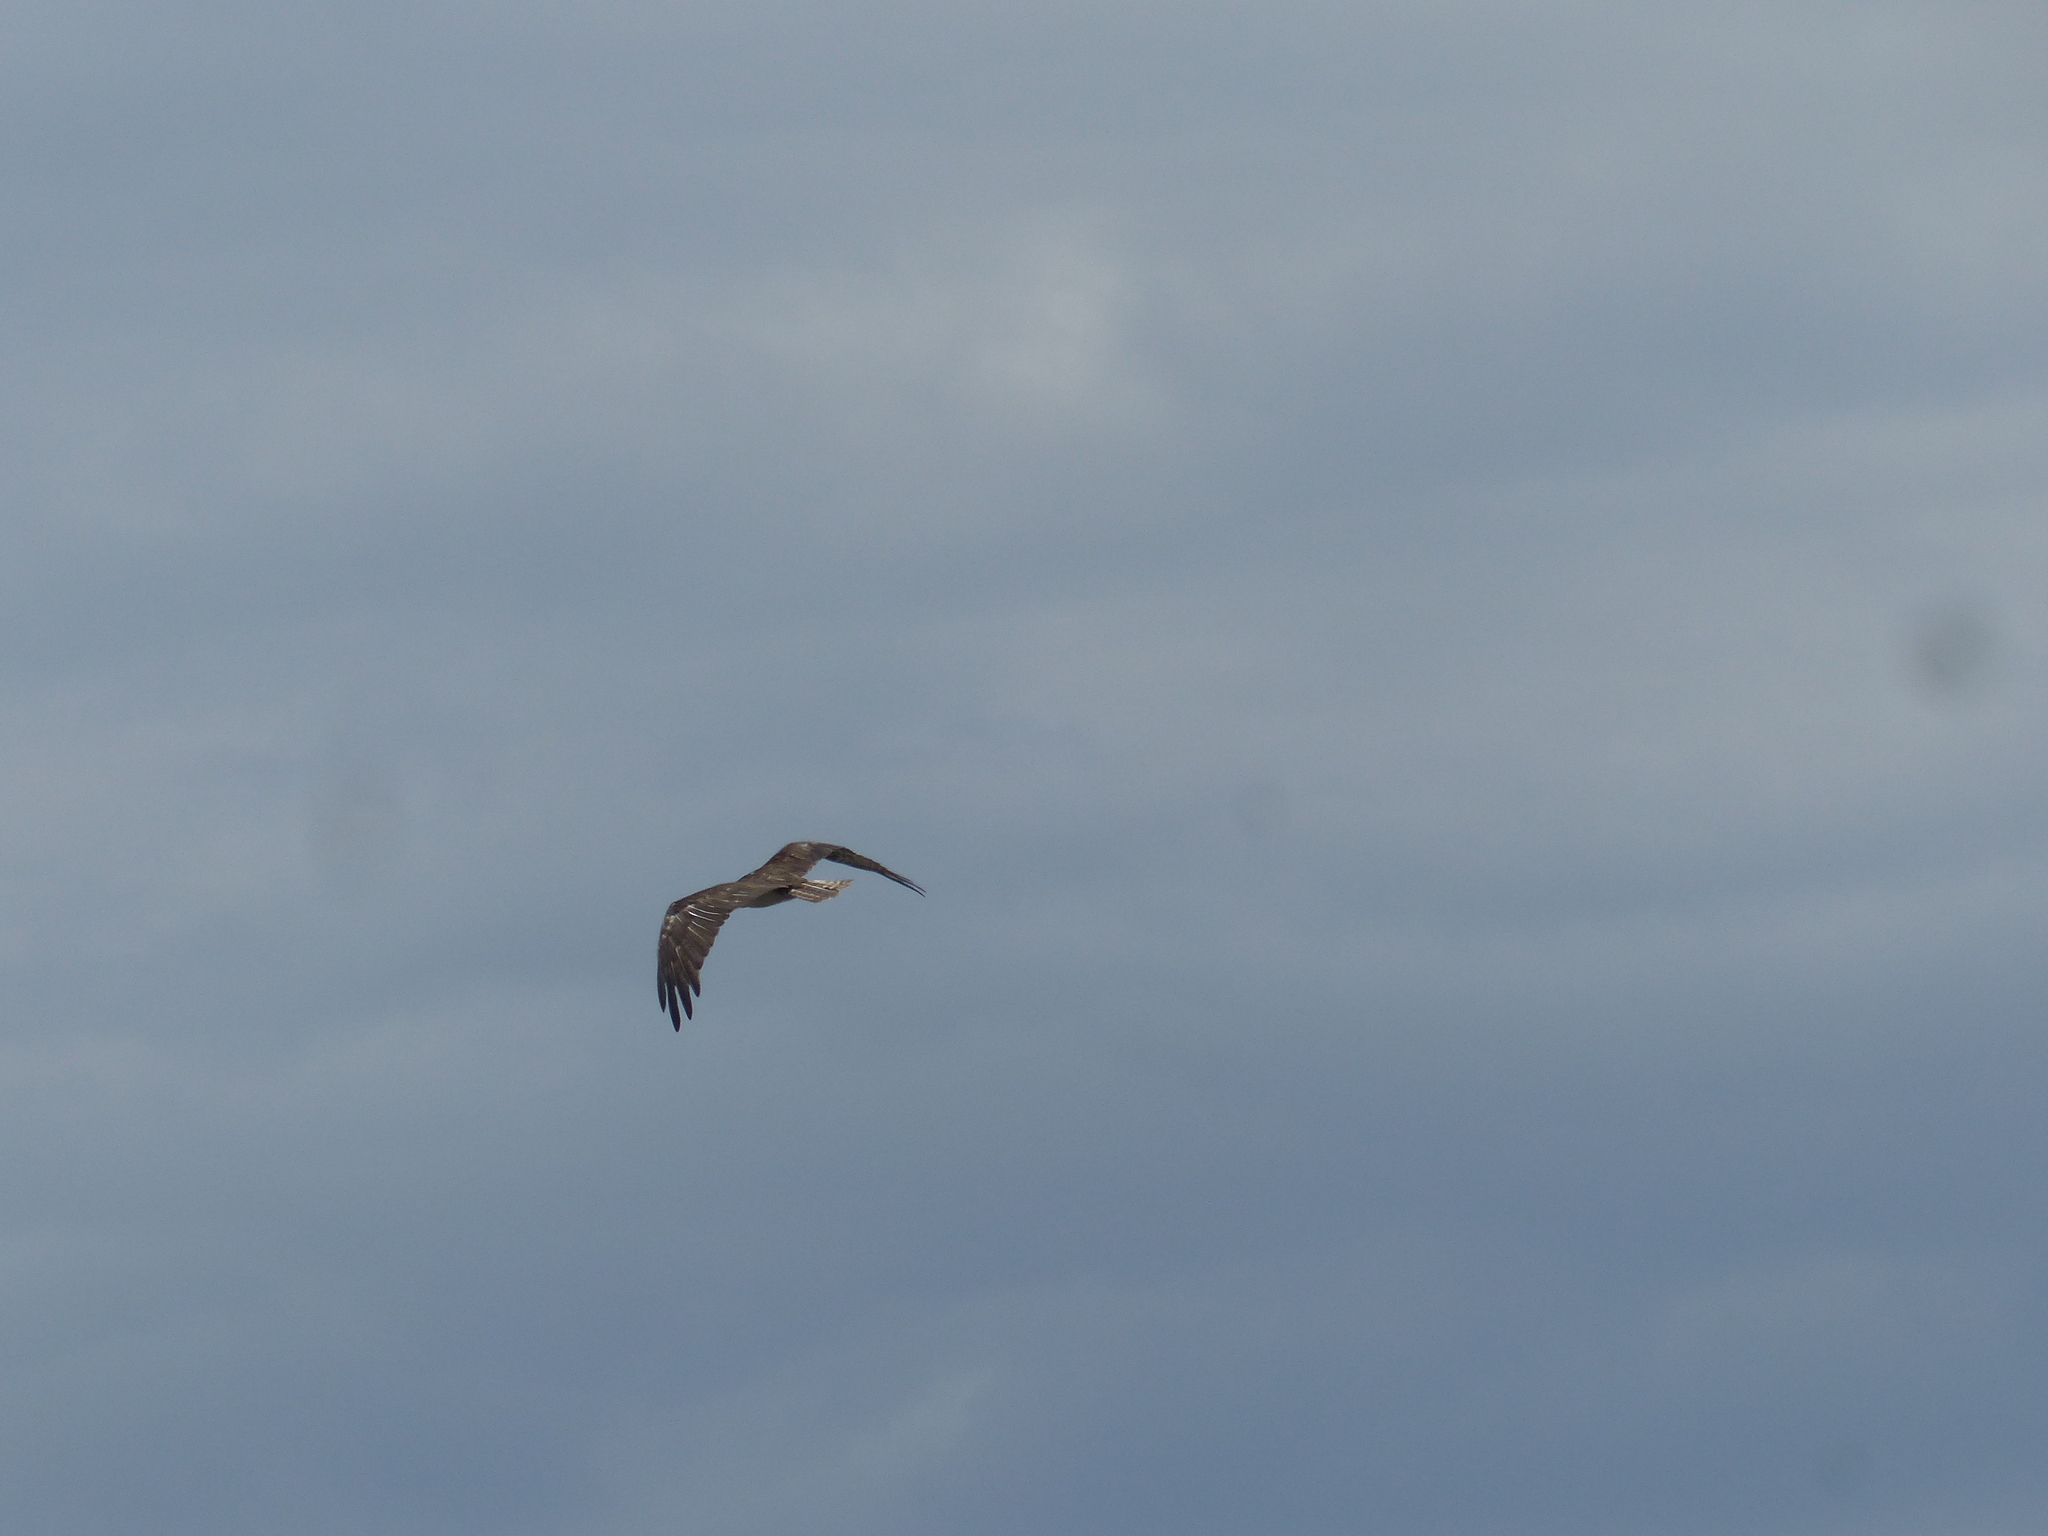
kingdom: Animalia
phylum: Chordata
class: Aves
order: Accipitriformes
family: Pandionidae
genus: Pandion
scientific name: Pandion haliaetus
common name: Osprey
